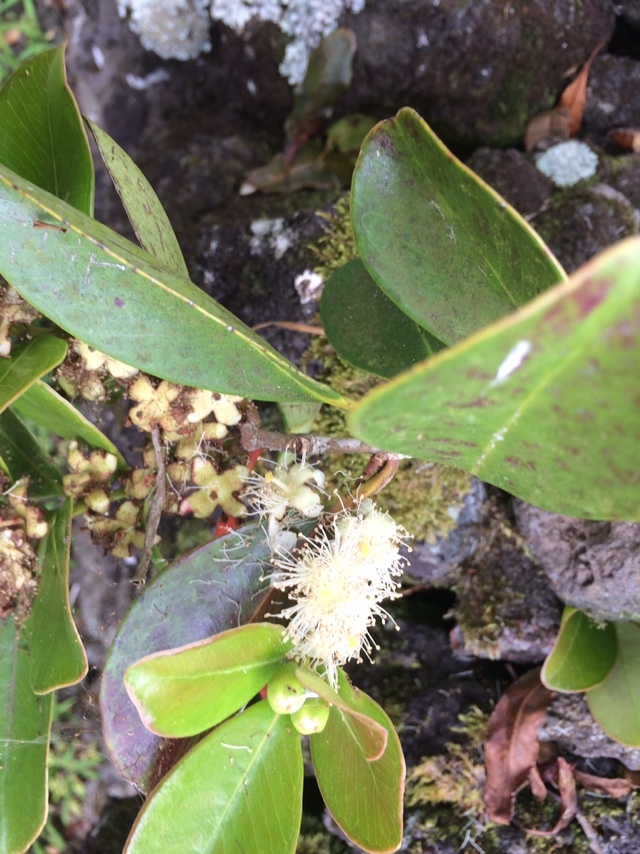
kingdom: Plantae
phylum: Tracheophyta
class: Magnoliopsida
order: Myrtales
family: Myrtaceae
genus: Psidium
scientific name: Psidium cattleianum
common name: Strawberry guava
